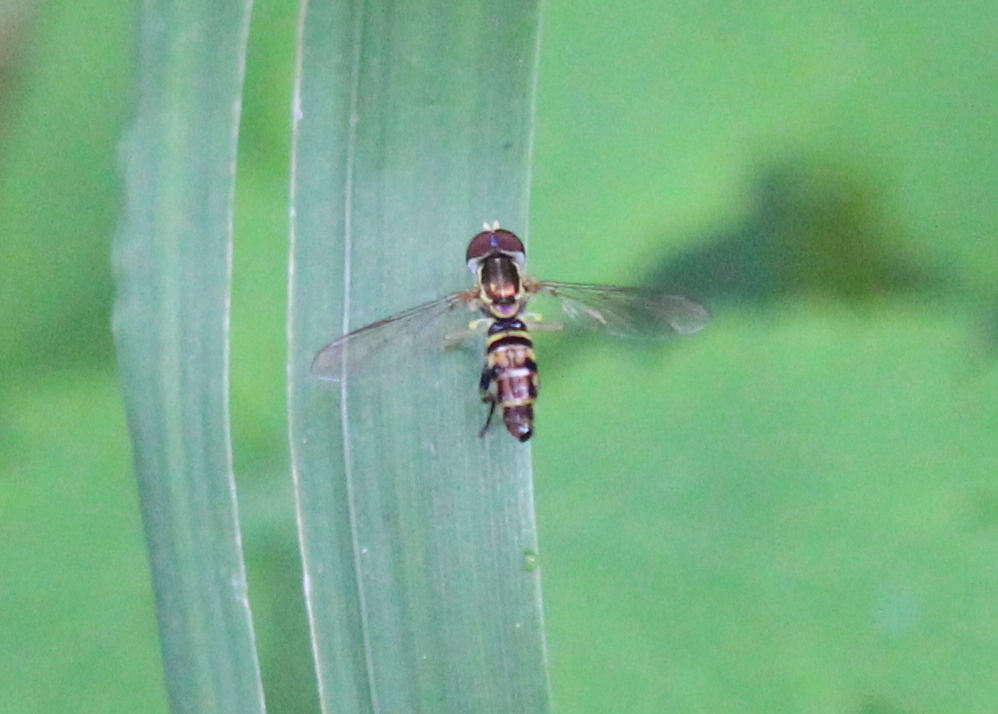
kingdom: Animalia
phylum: Arthropoda
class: Insecta
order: Diptera
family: Syrphidae
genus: Toxomerus
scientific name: Toxomerus geminatus
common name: Eastern calligrapher
